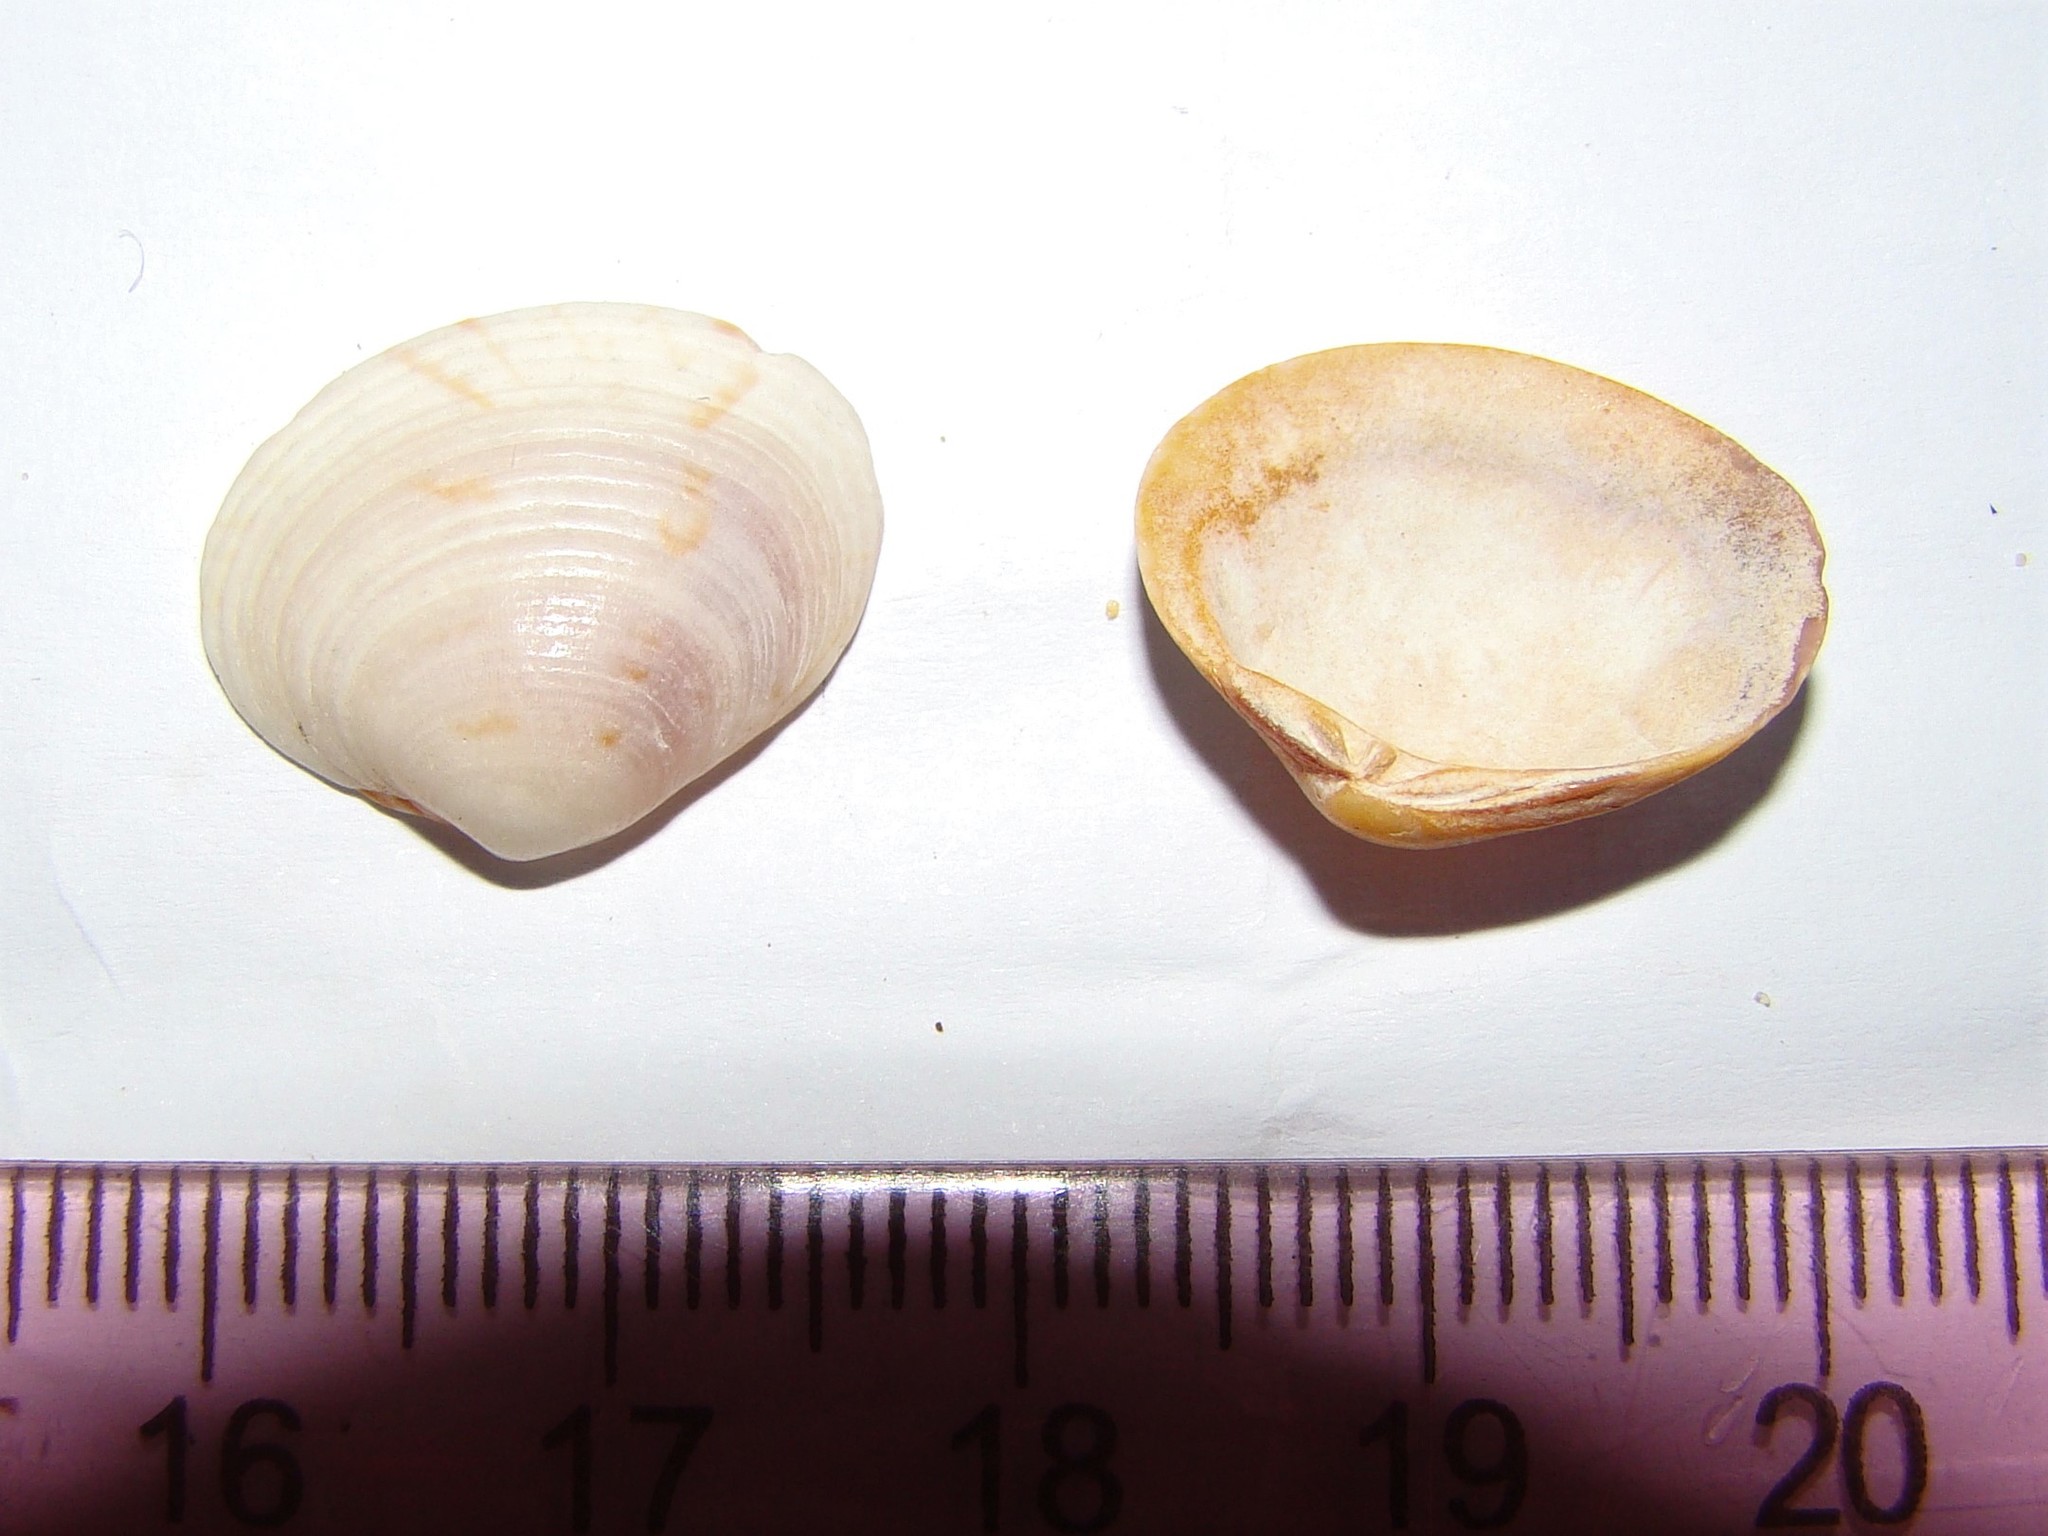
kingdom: Animalia
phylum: Mollusca
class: Bivalvia
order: Venerida
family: Veneridae
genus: Tawera
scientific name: Tawera spissa
